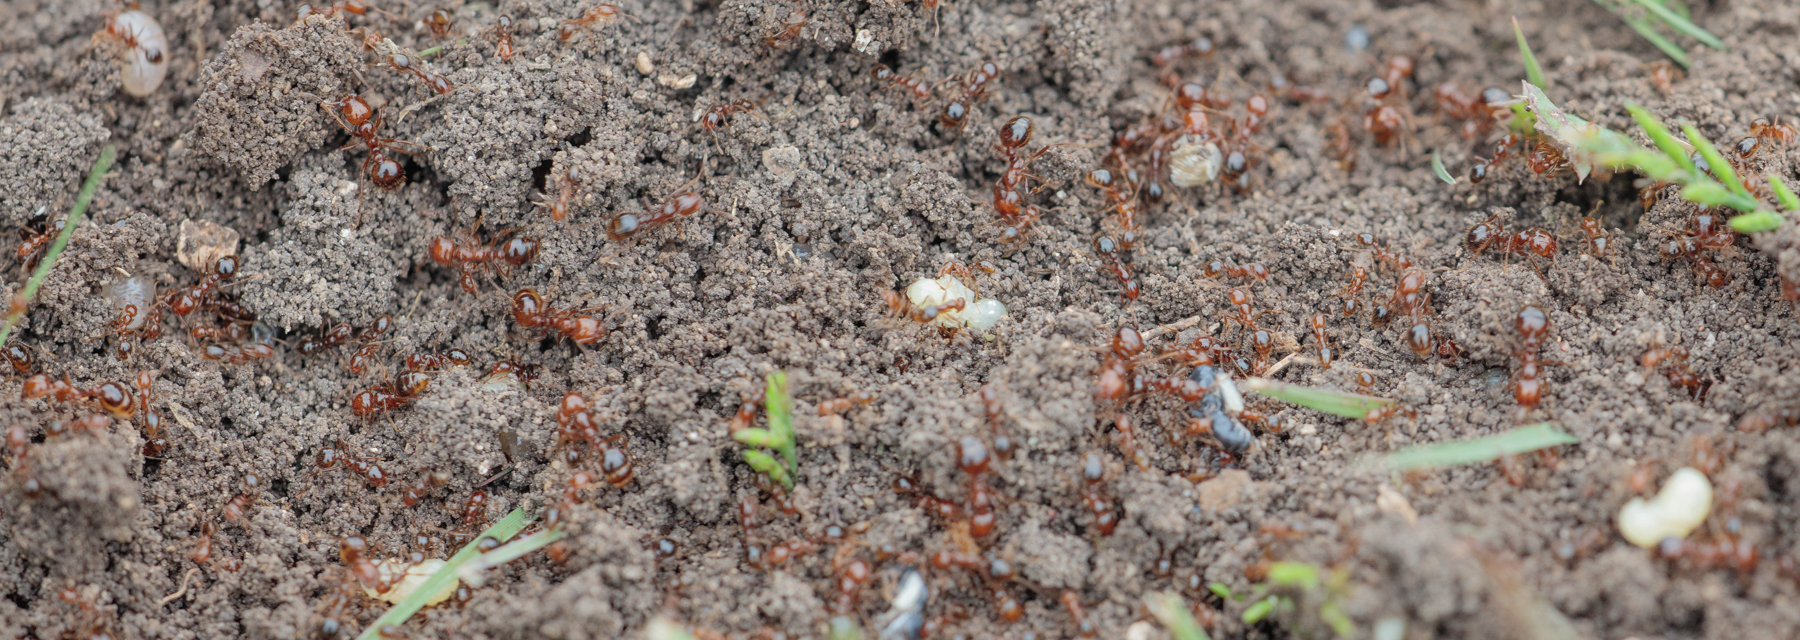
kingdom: Animalia
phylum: Arthropoda
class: Insecta
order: Hymenoptera
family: Formicidae
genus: Solenopsis
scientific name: Solenopsis invicta
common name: Red imported fire ant
